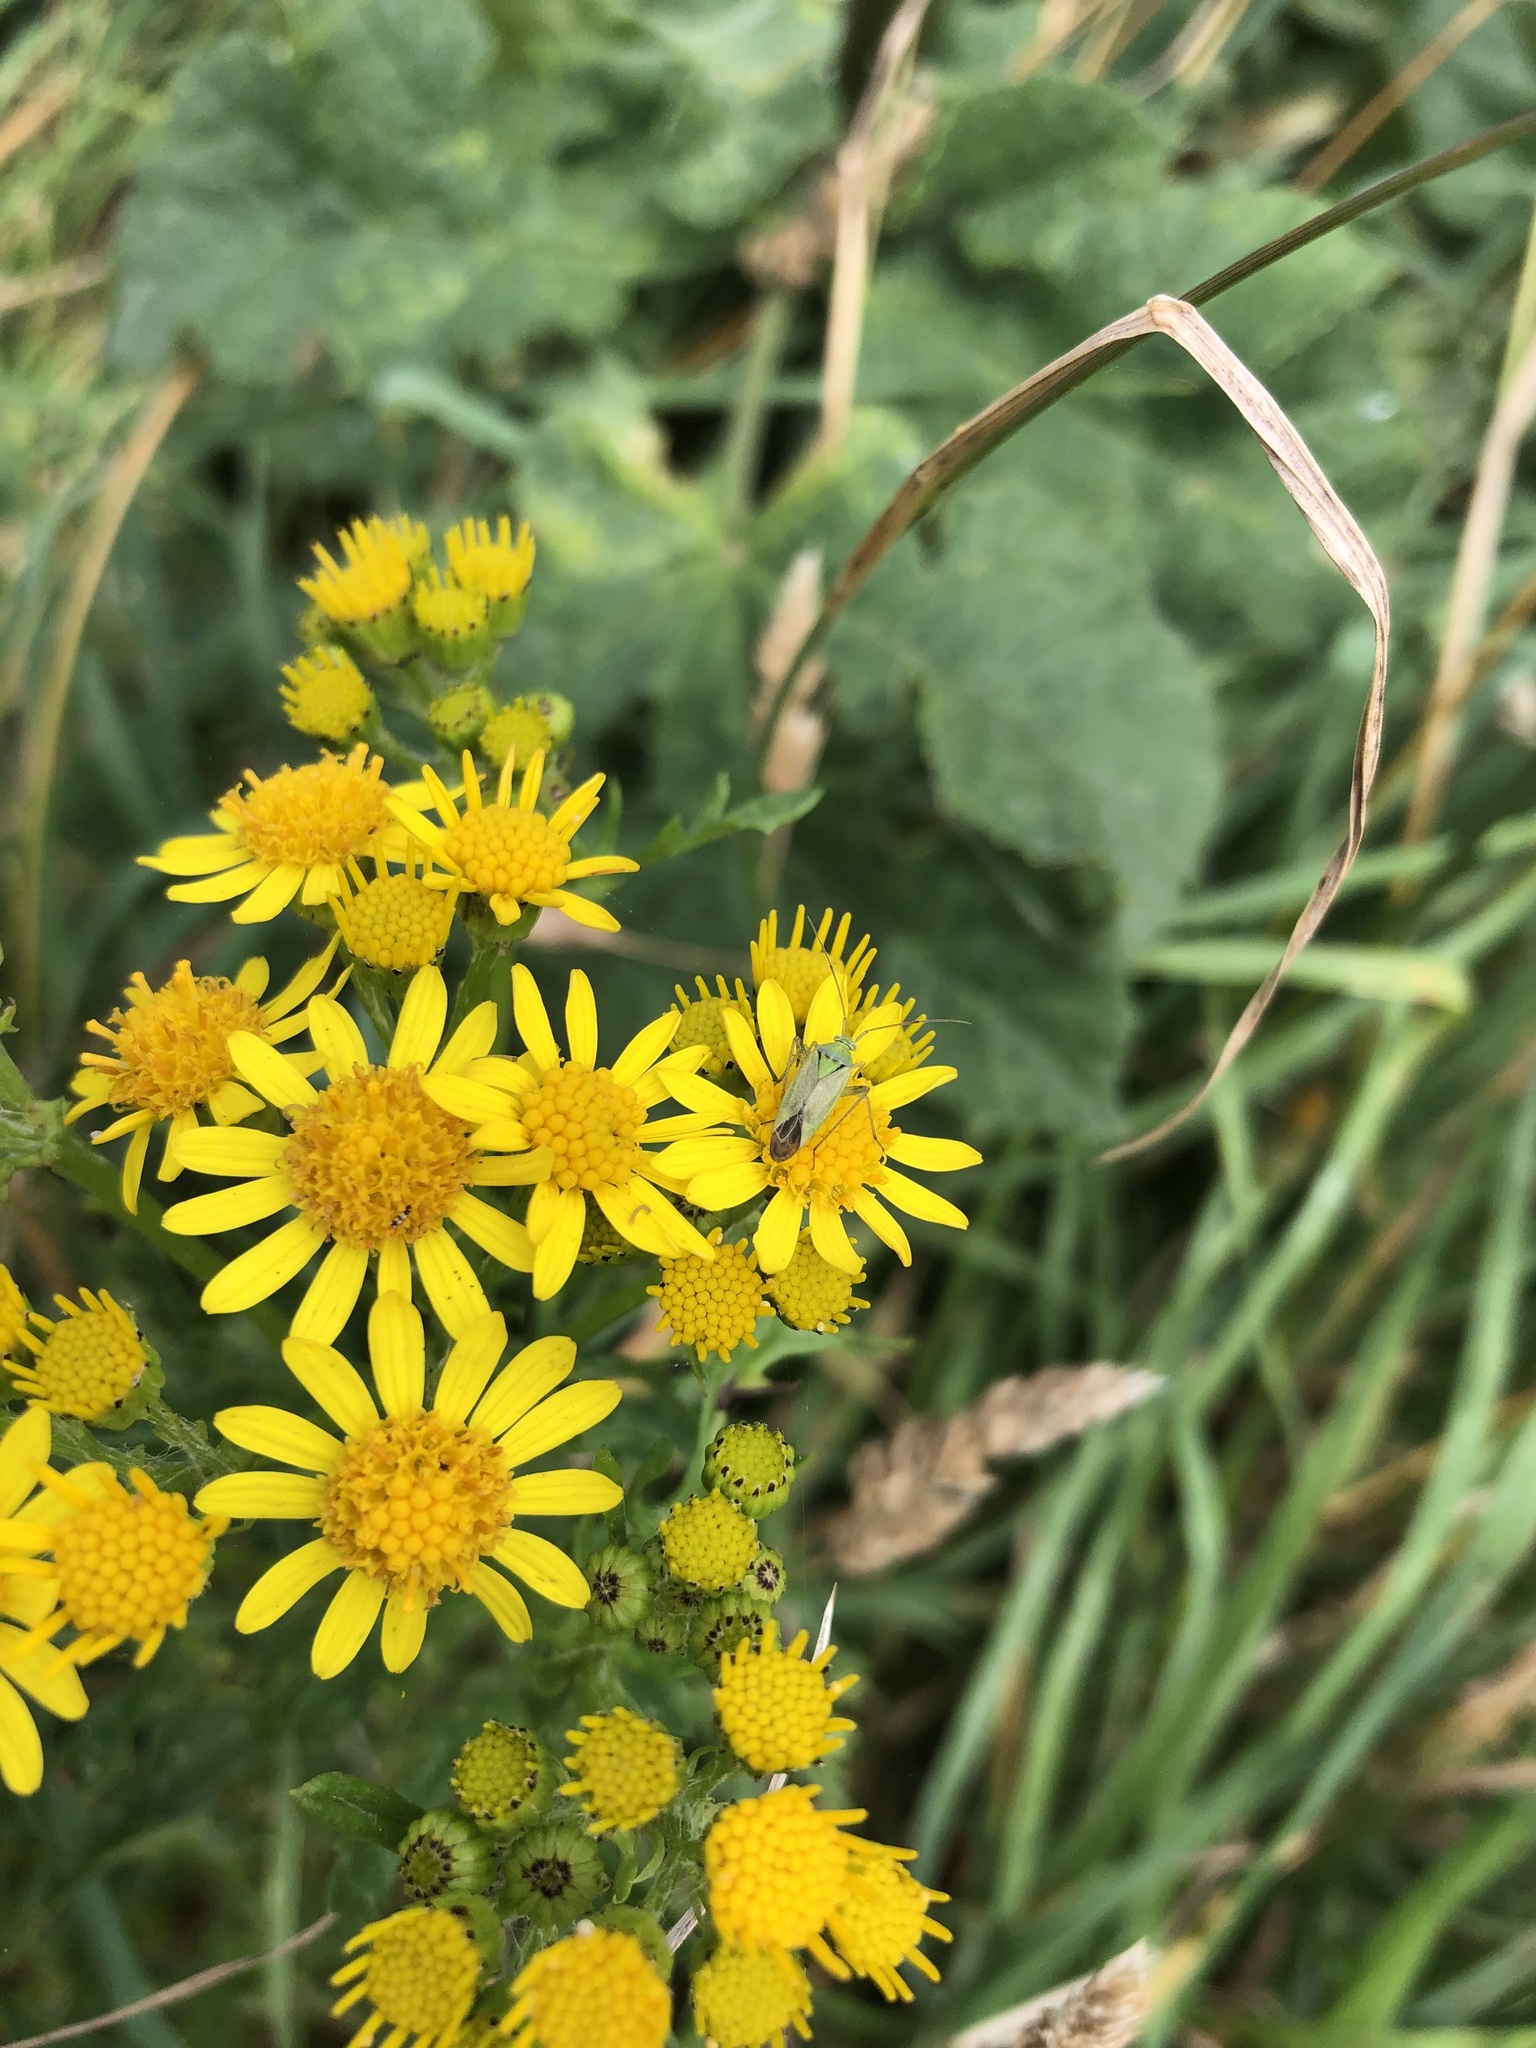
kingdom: Animalia
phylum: Arthropoda
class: Insecta
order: Hemiptera
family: Miridae
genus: Closterotomus
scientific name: Closterotomus norvegicus
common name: Plant bug
